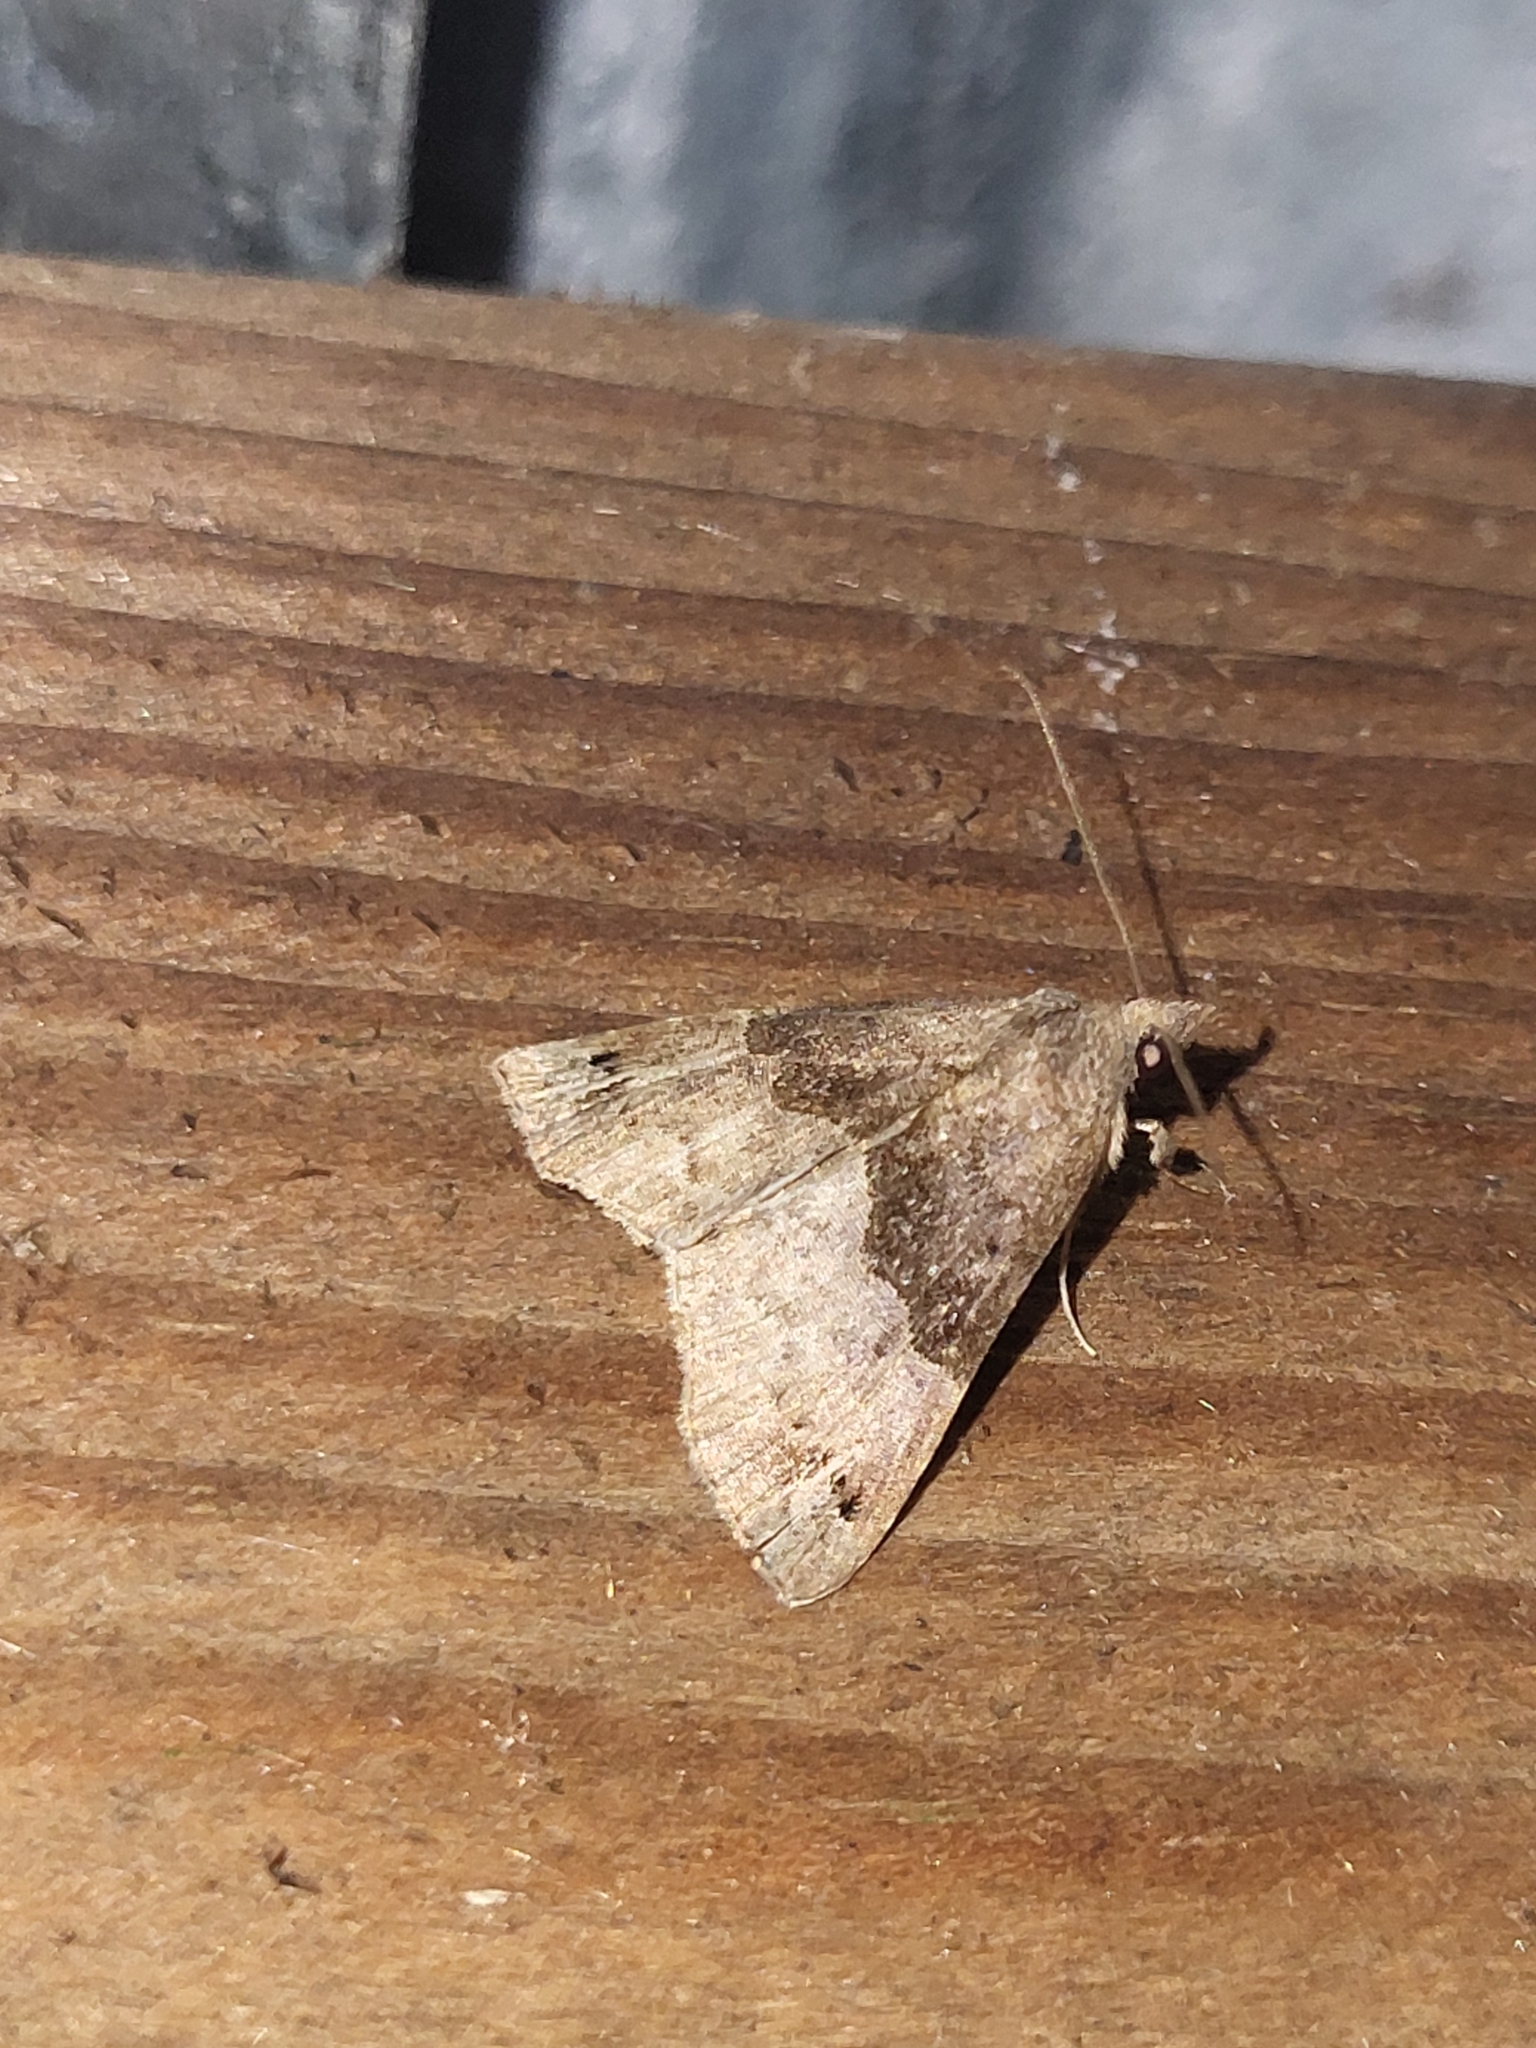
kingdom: Animalia
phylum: Arthropoda
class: Insecta
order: Lepidoptera
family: Erebidae
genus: Hypena
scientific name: Hypena
